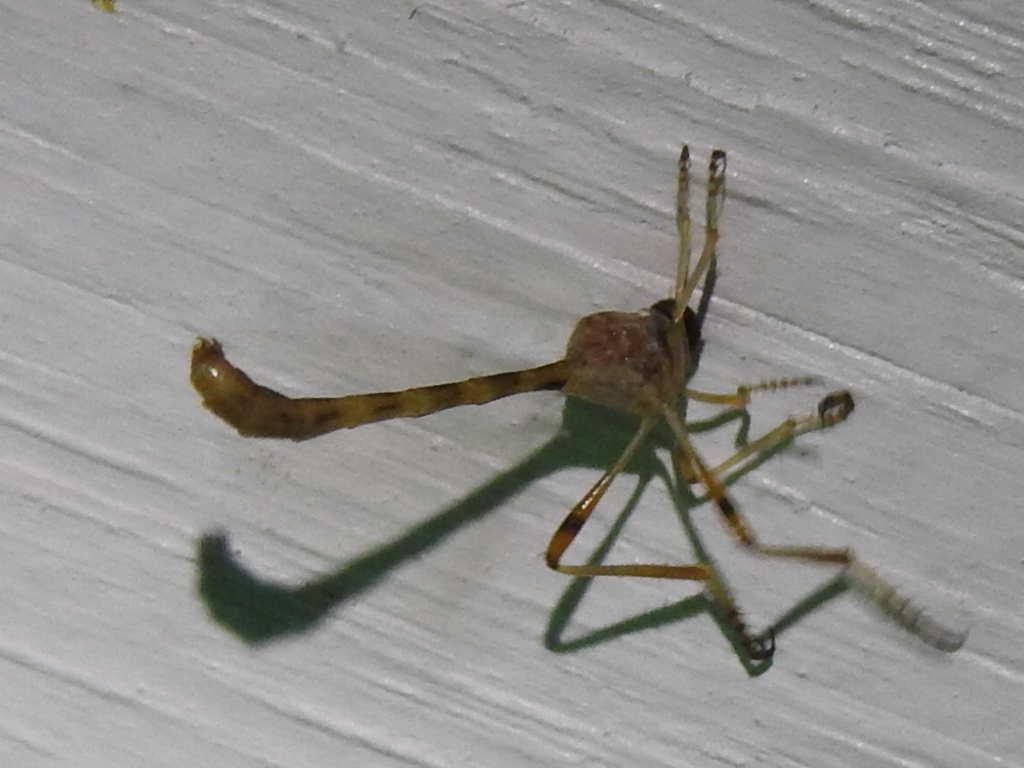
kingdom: Animalia
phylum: Arthropoda
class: Insecta
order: Diptera
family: Asilidae
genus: Tipulogaster
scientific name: Tipulogaster glabrata
